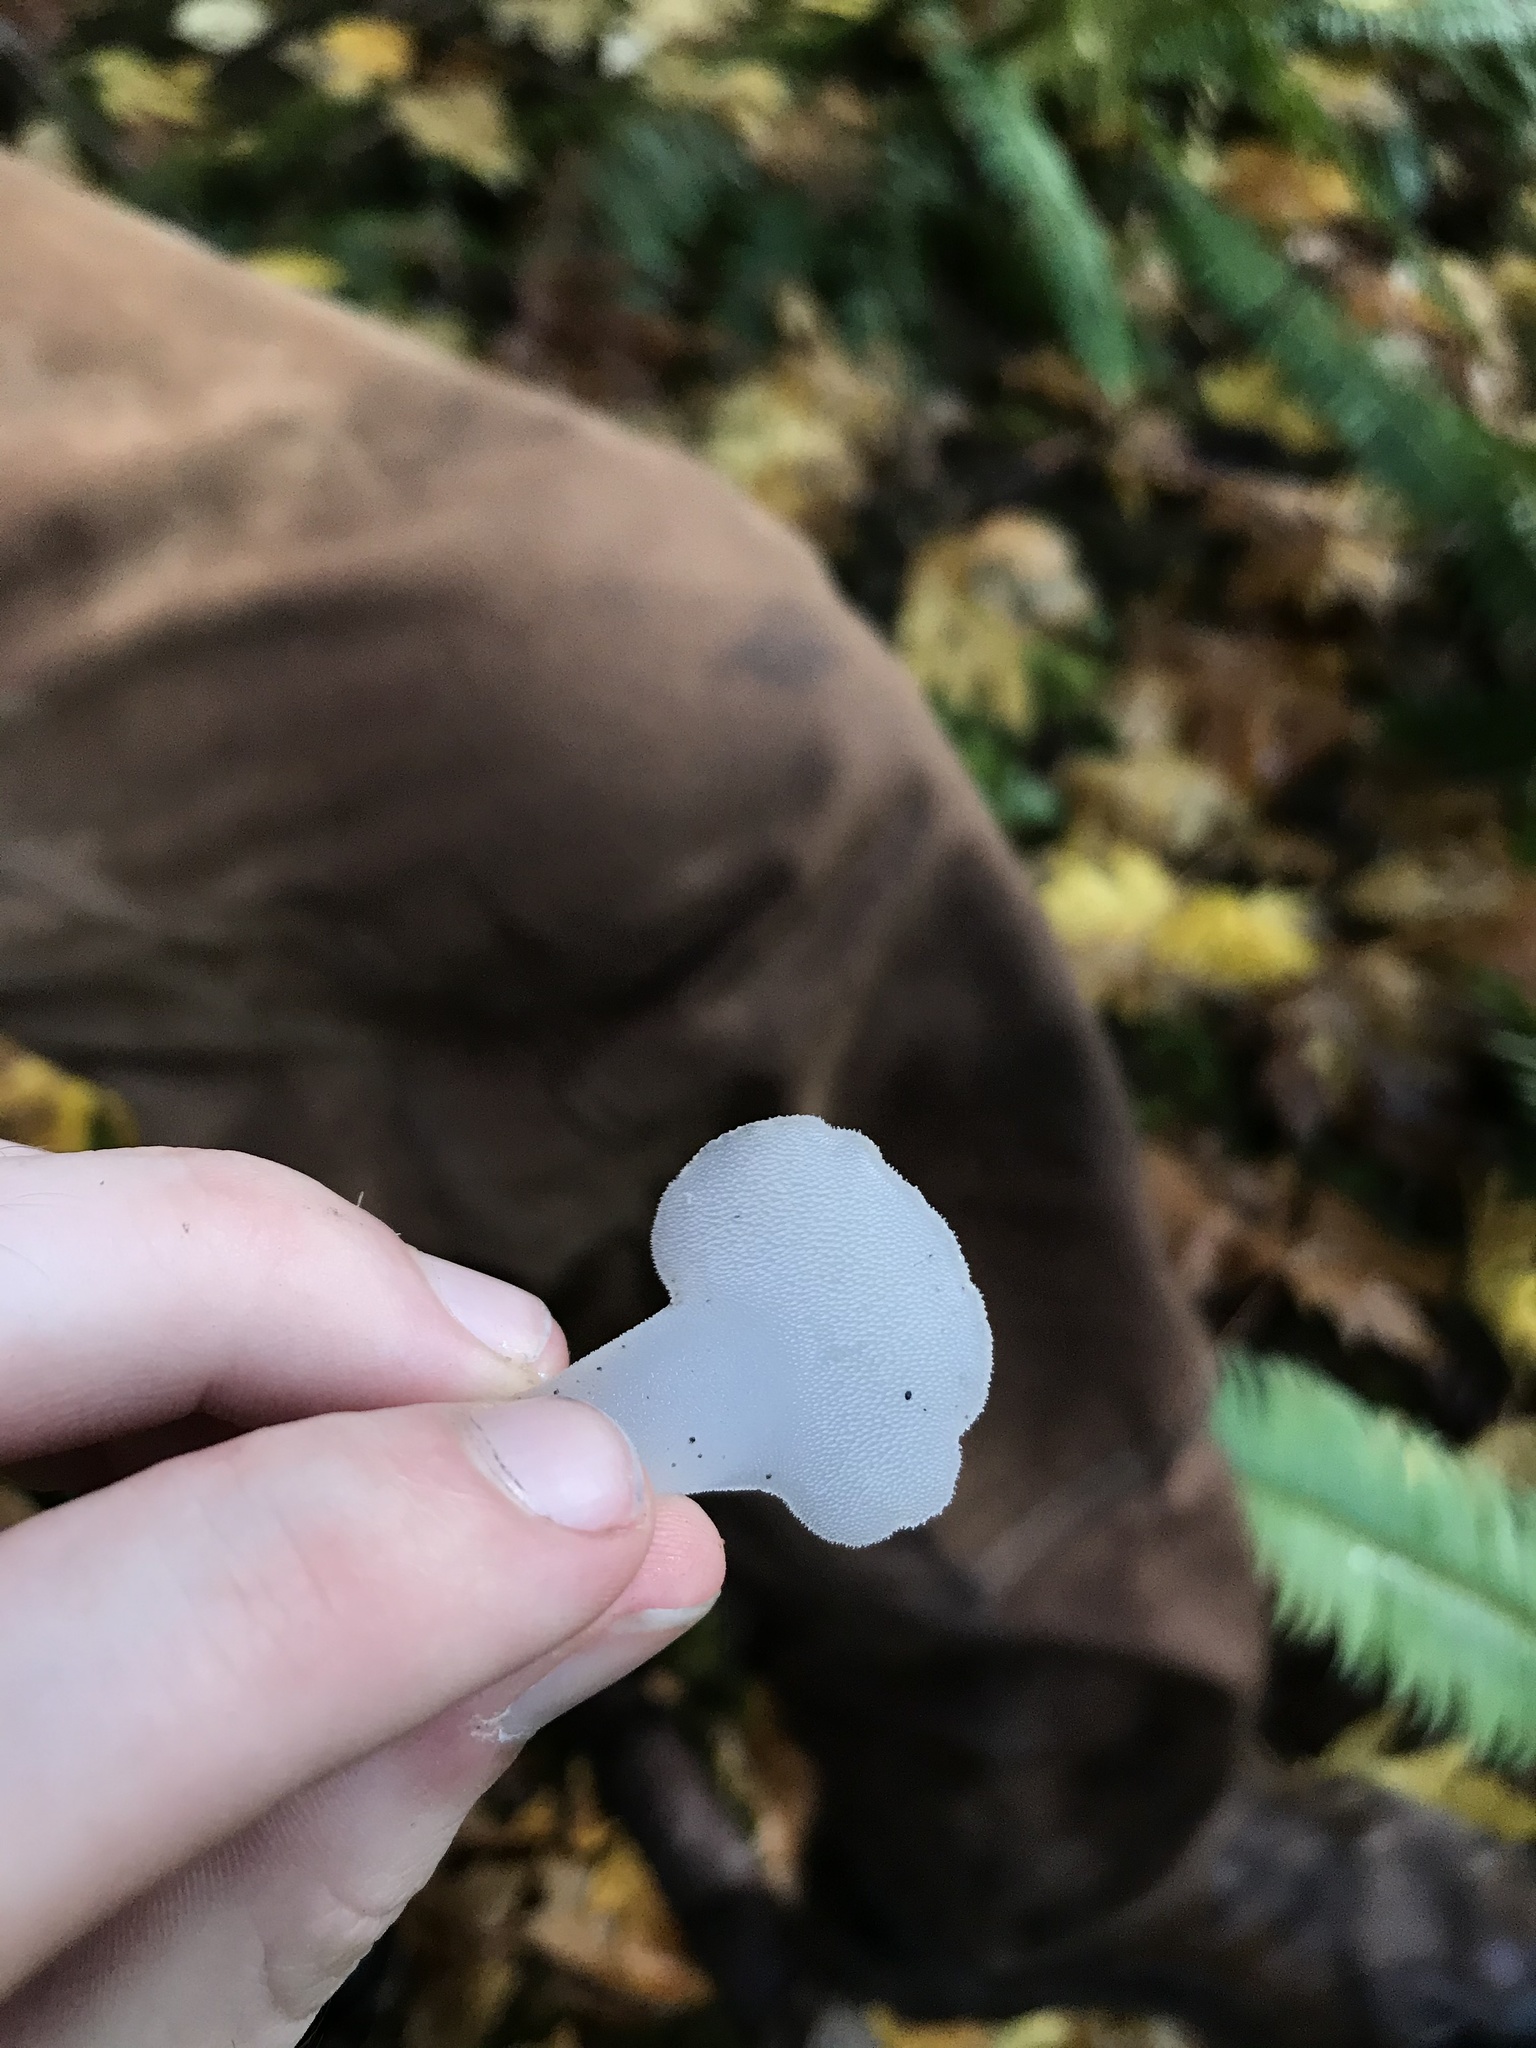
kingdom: Fungi
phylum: Basidiomycota
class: Agaricomycetes
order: Auriculariales
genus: Pseudohydnum
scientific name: Pseudohydnum gelatinosum
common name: Jelly tongue
